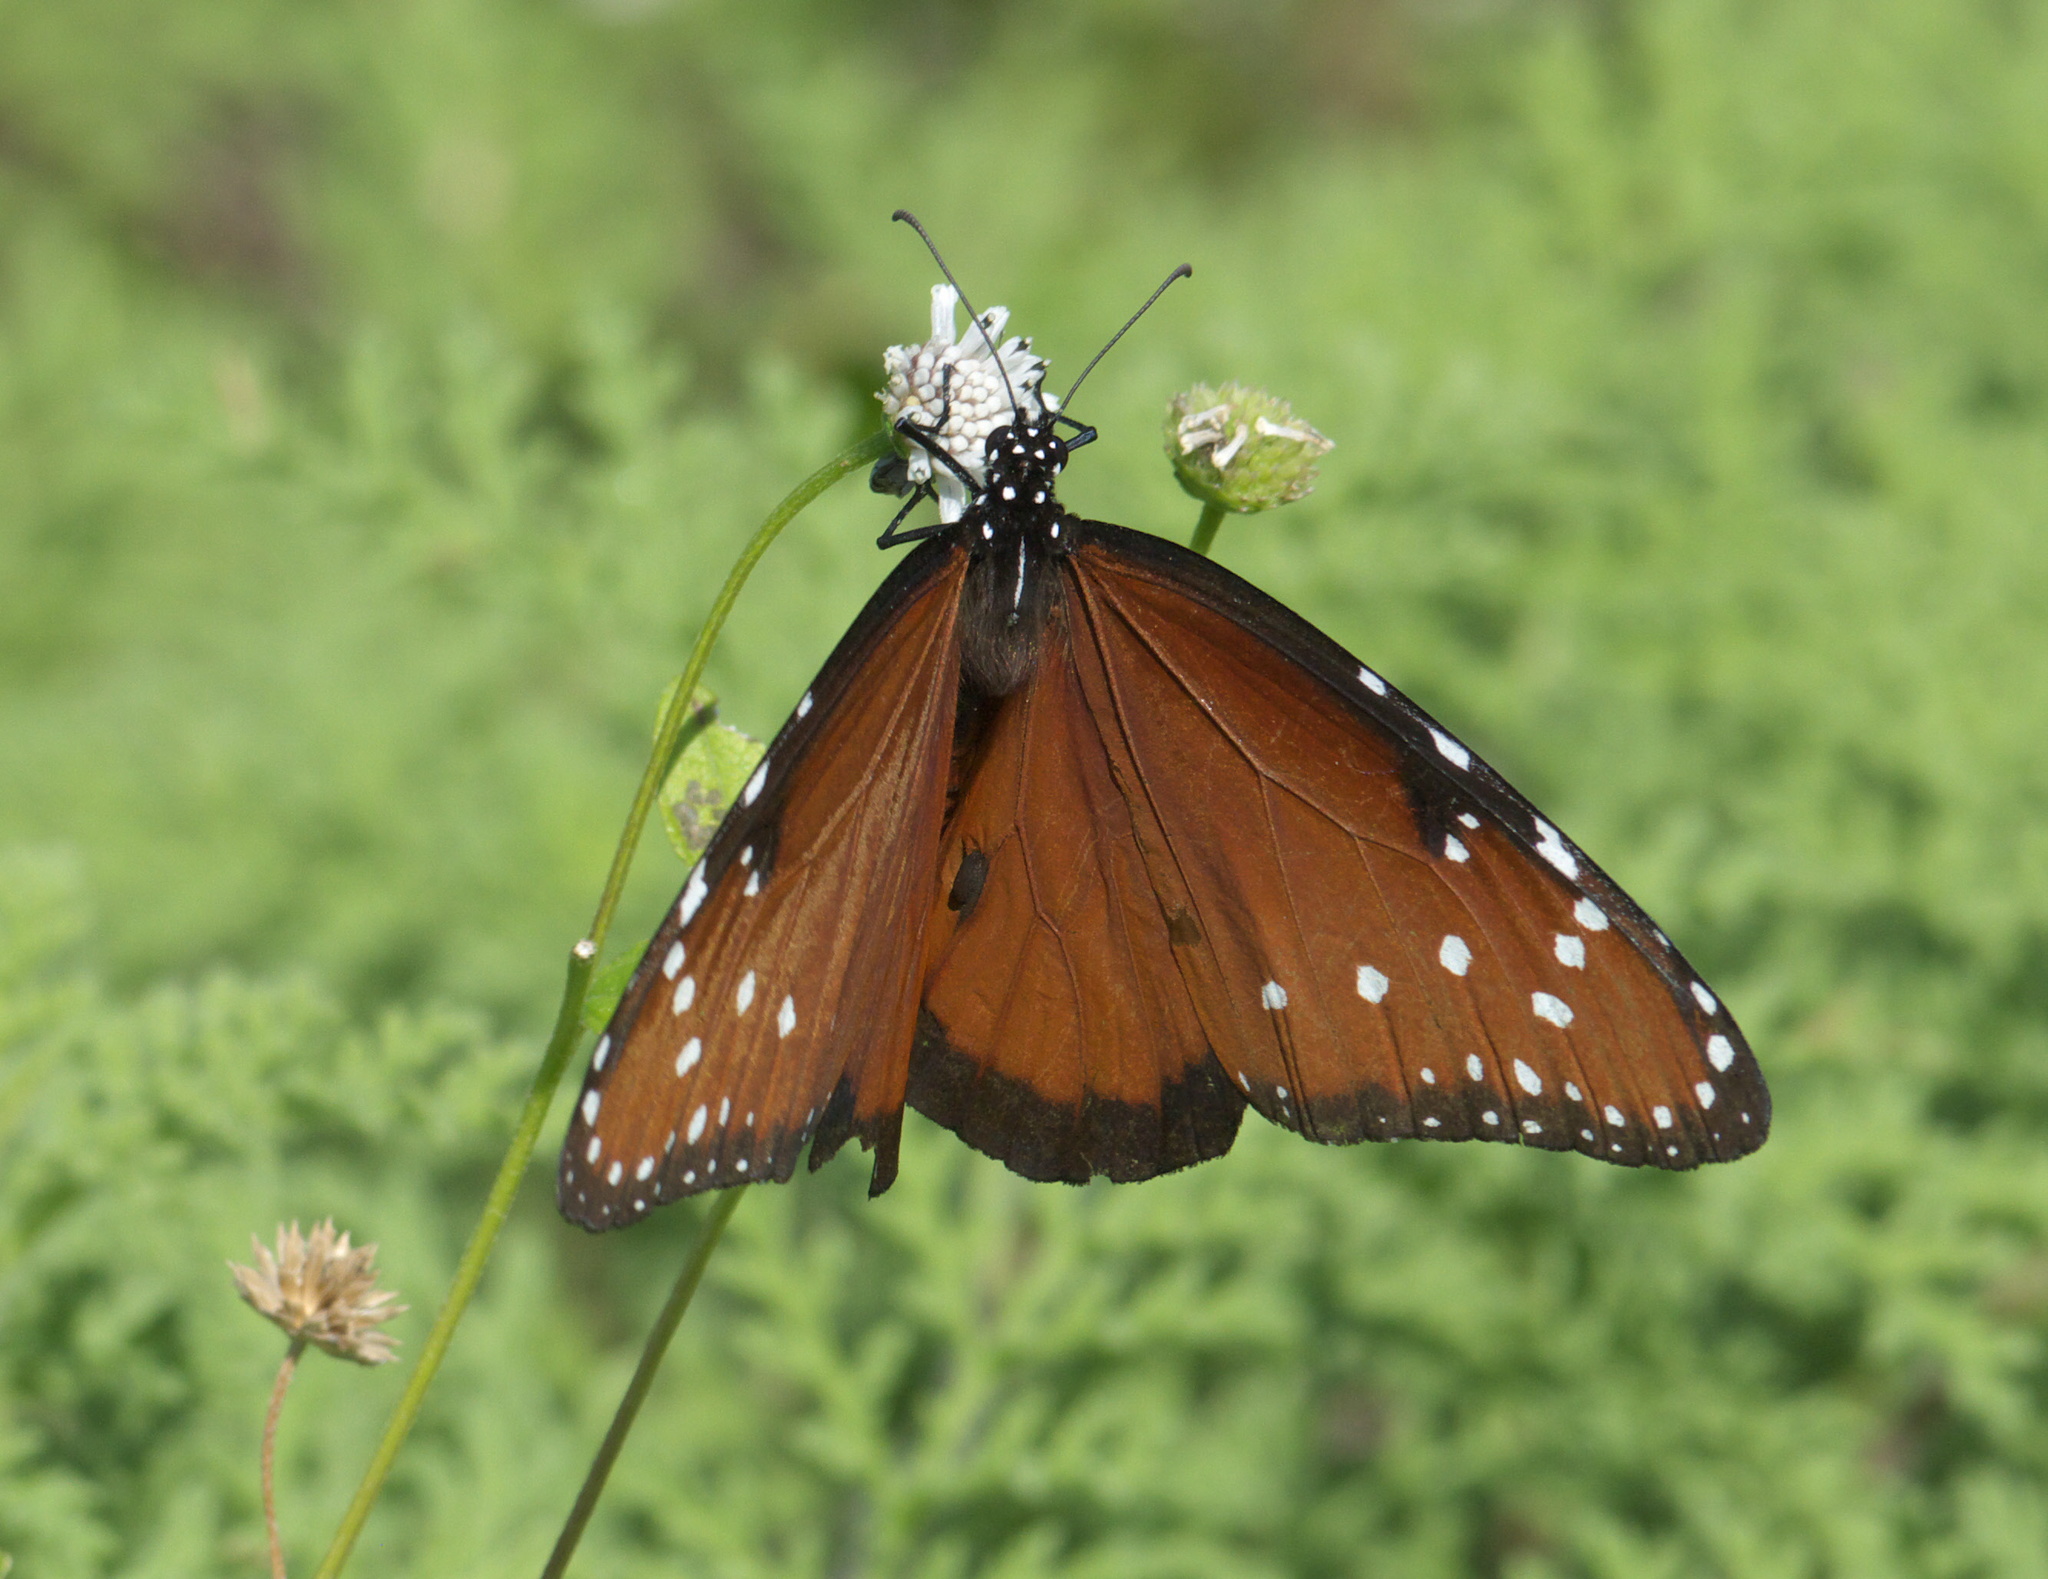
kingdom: Animalia
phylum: Arthropoda
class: Insecta
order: Lepidoptera
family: Nymphalidae
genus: Danaus
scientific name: Danaus gilippus
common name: Queen
